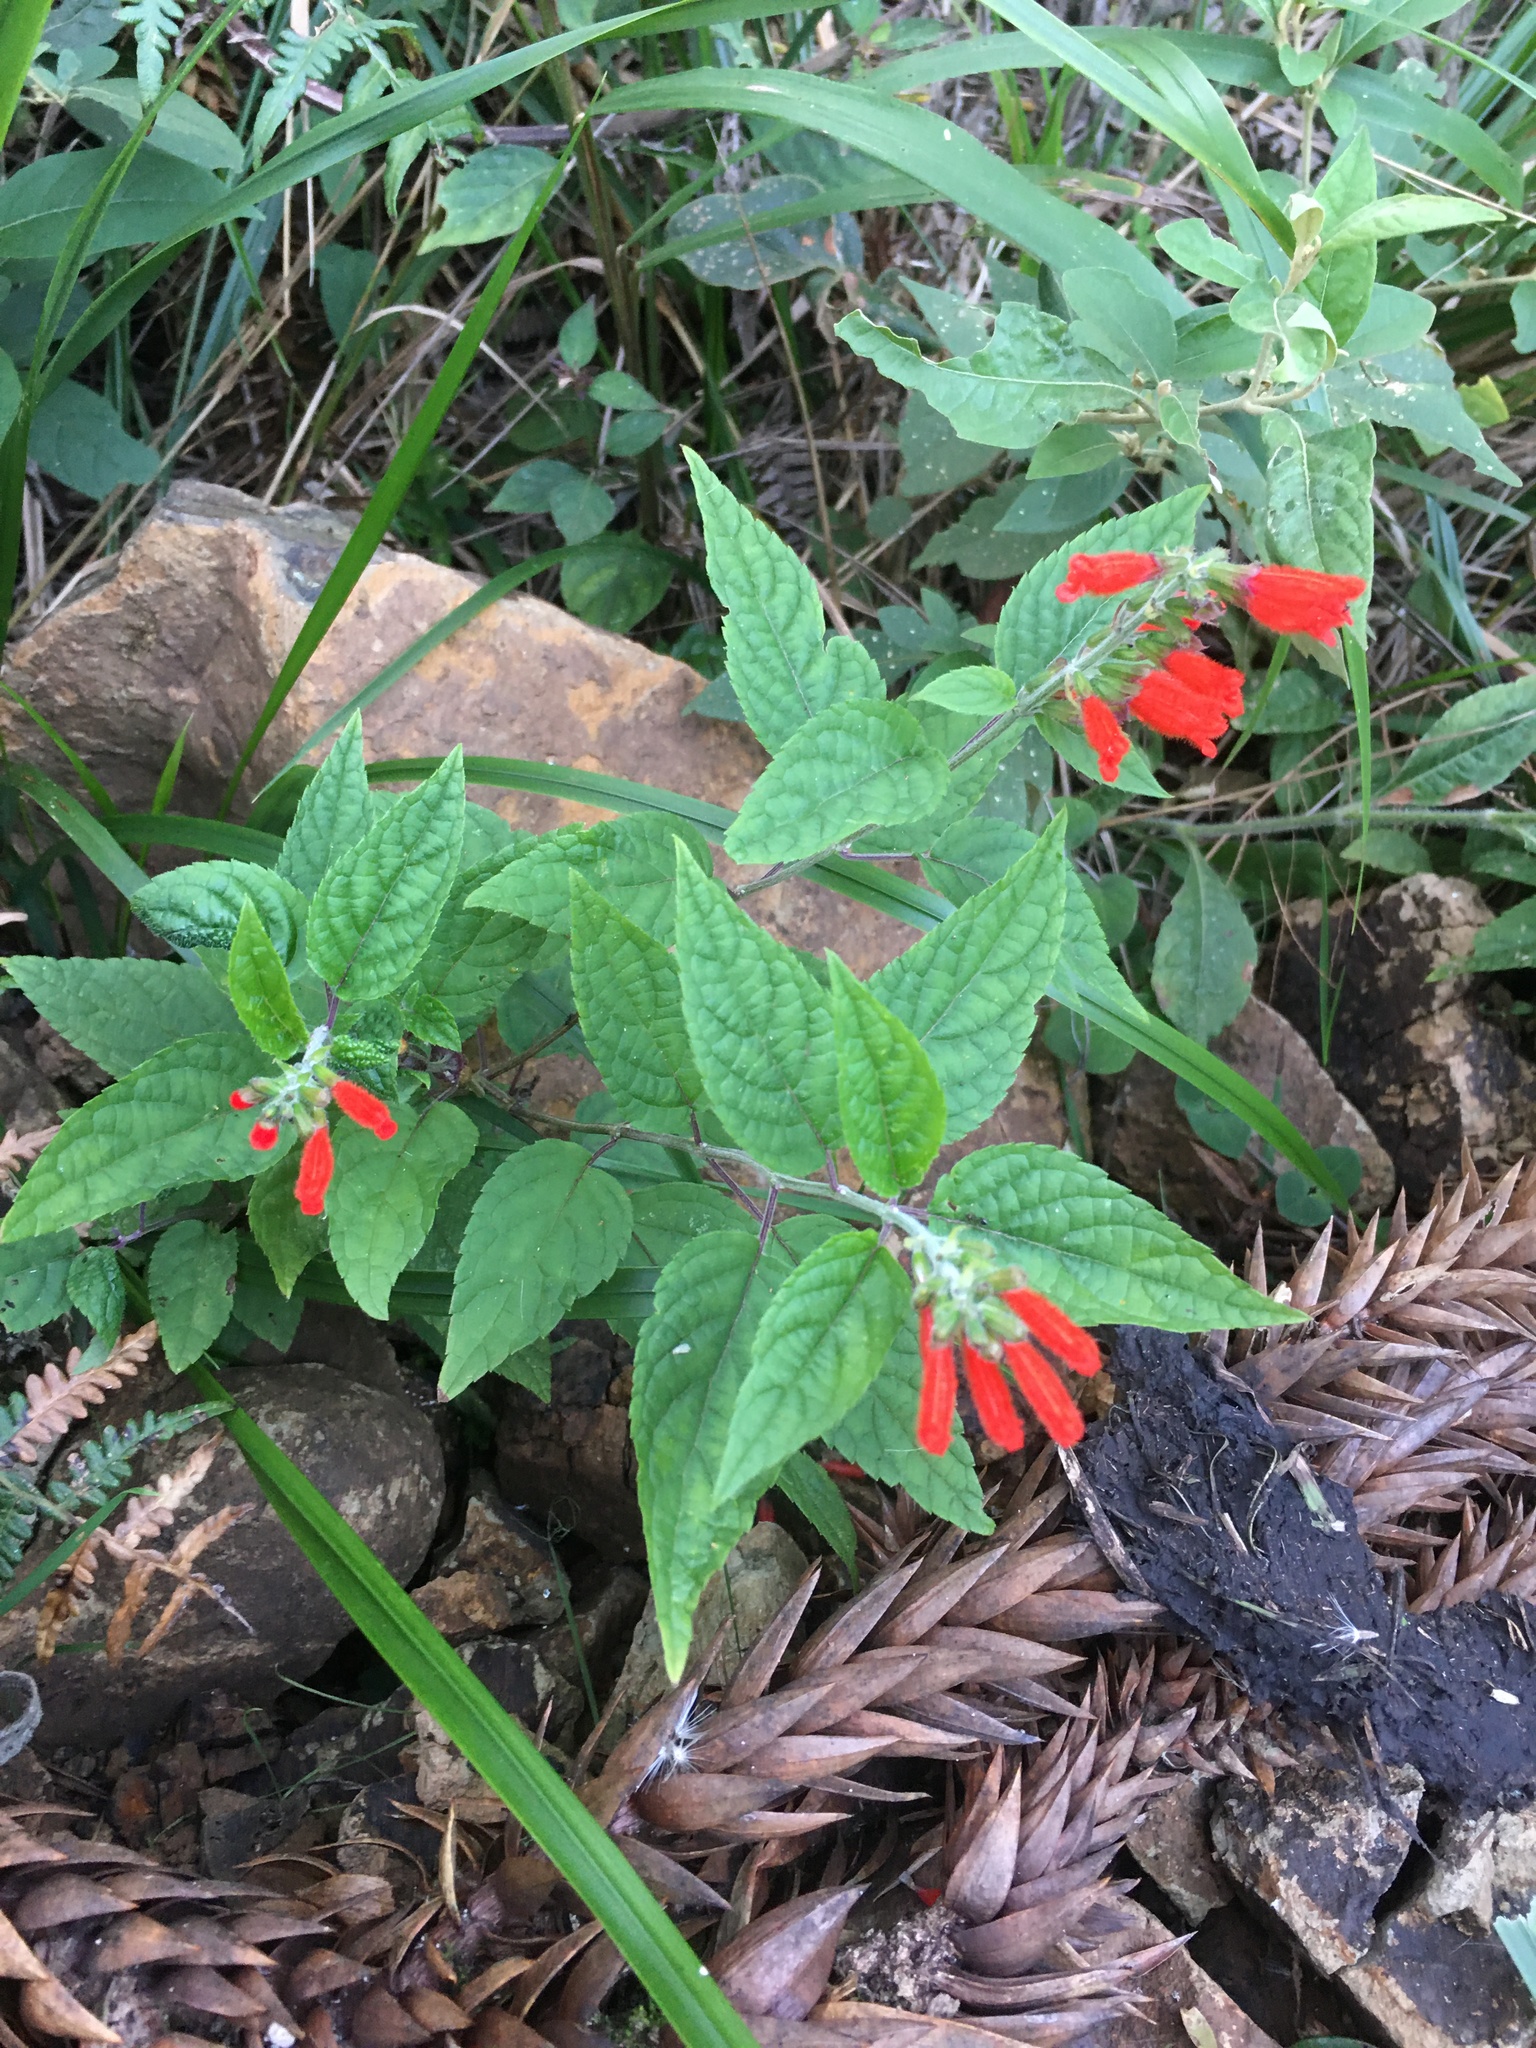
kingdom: Plantae
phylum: Tracheophyta
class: Magnoliopsida
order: Lamiales
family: Lamiaceae
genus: Salvia
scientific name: Salvia melissiflora
